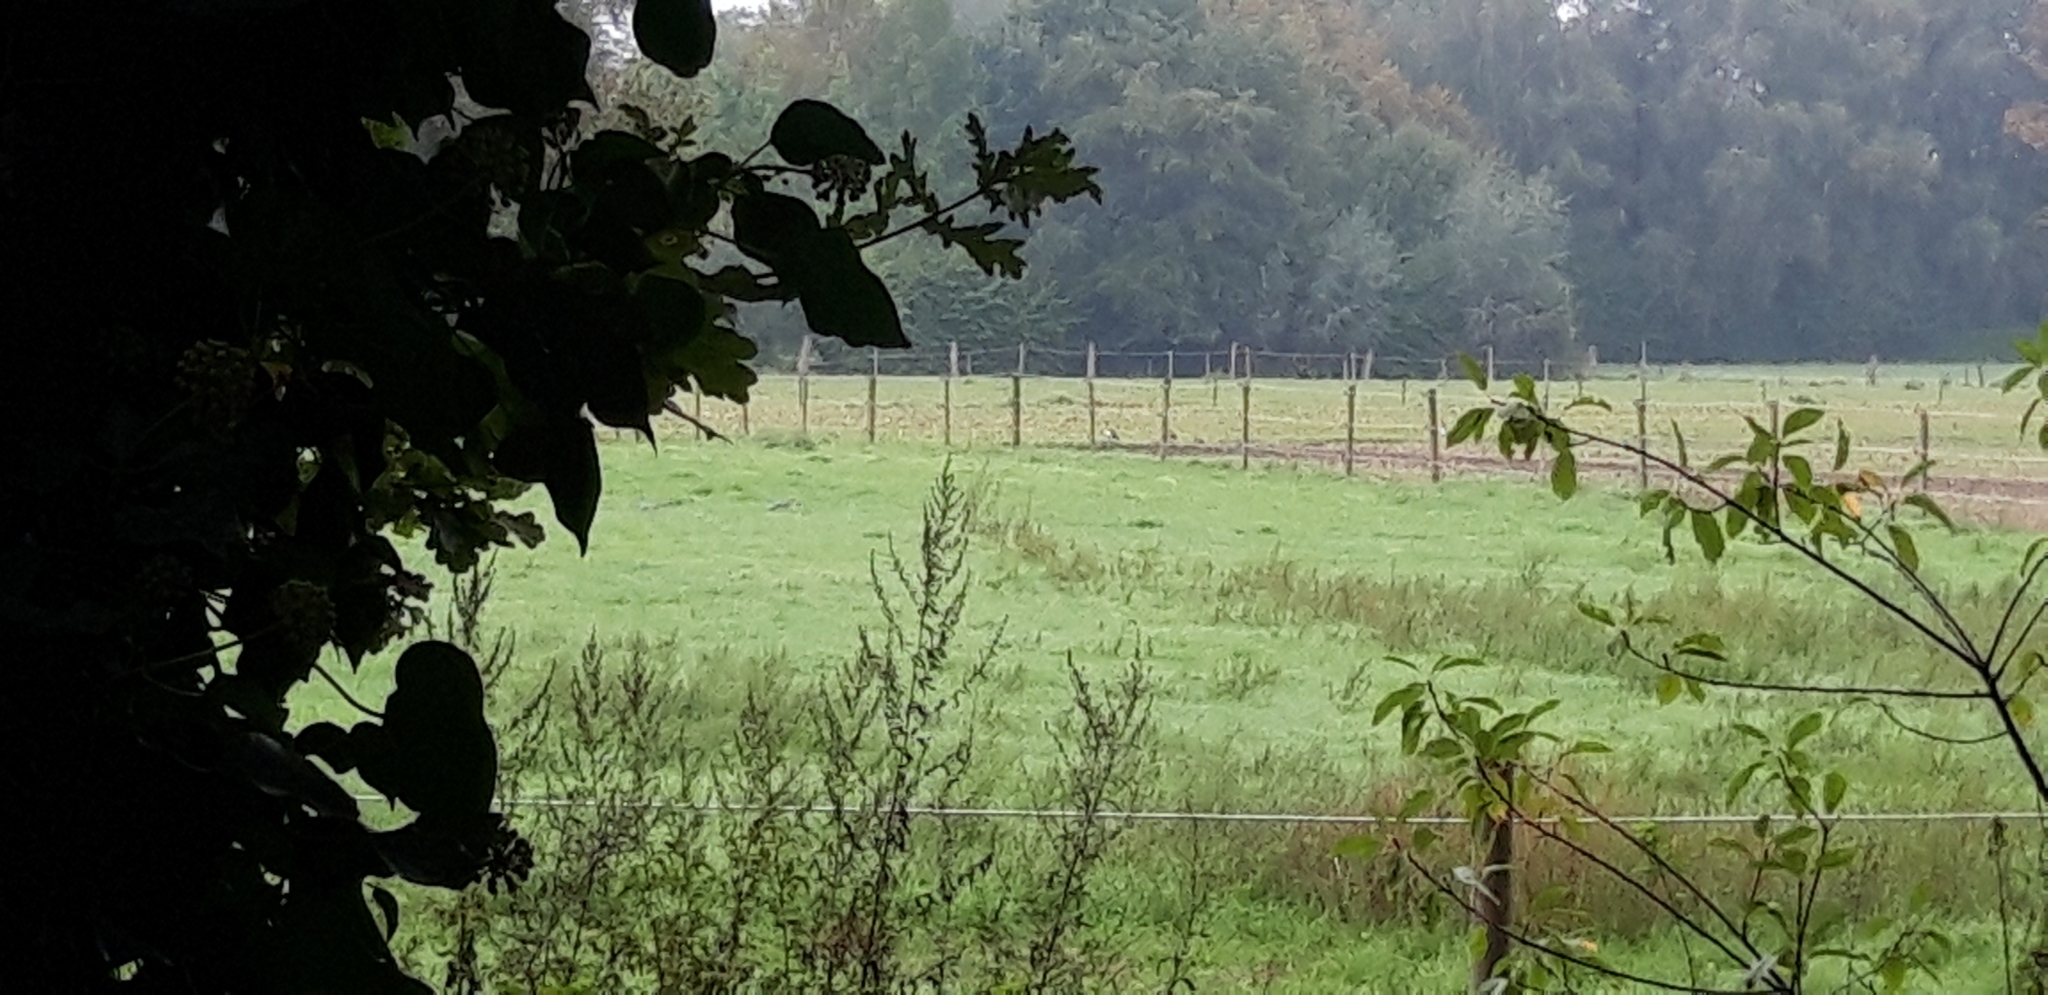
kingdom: Animalia
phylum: Chordata
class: Aves
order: Anseriformes
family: Anatidae
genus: Alopochen
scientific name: Alopochen aegyptiaca
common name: Egyptian goose
